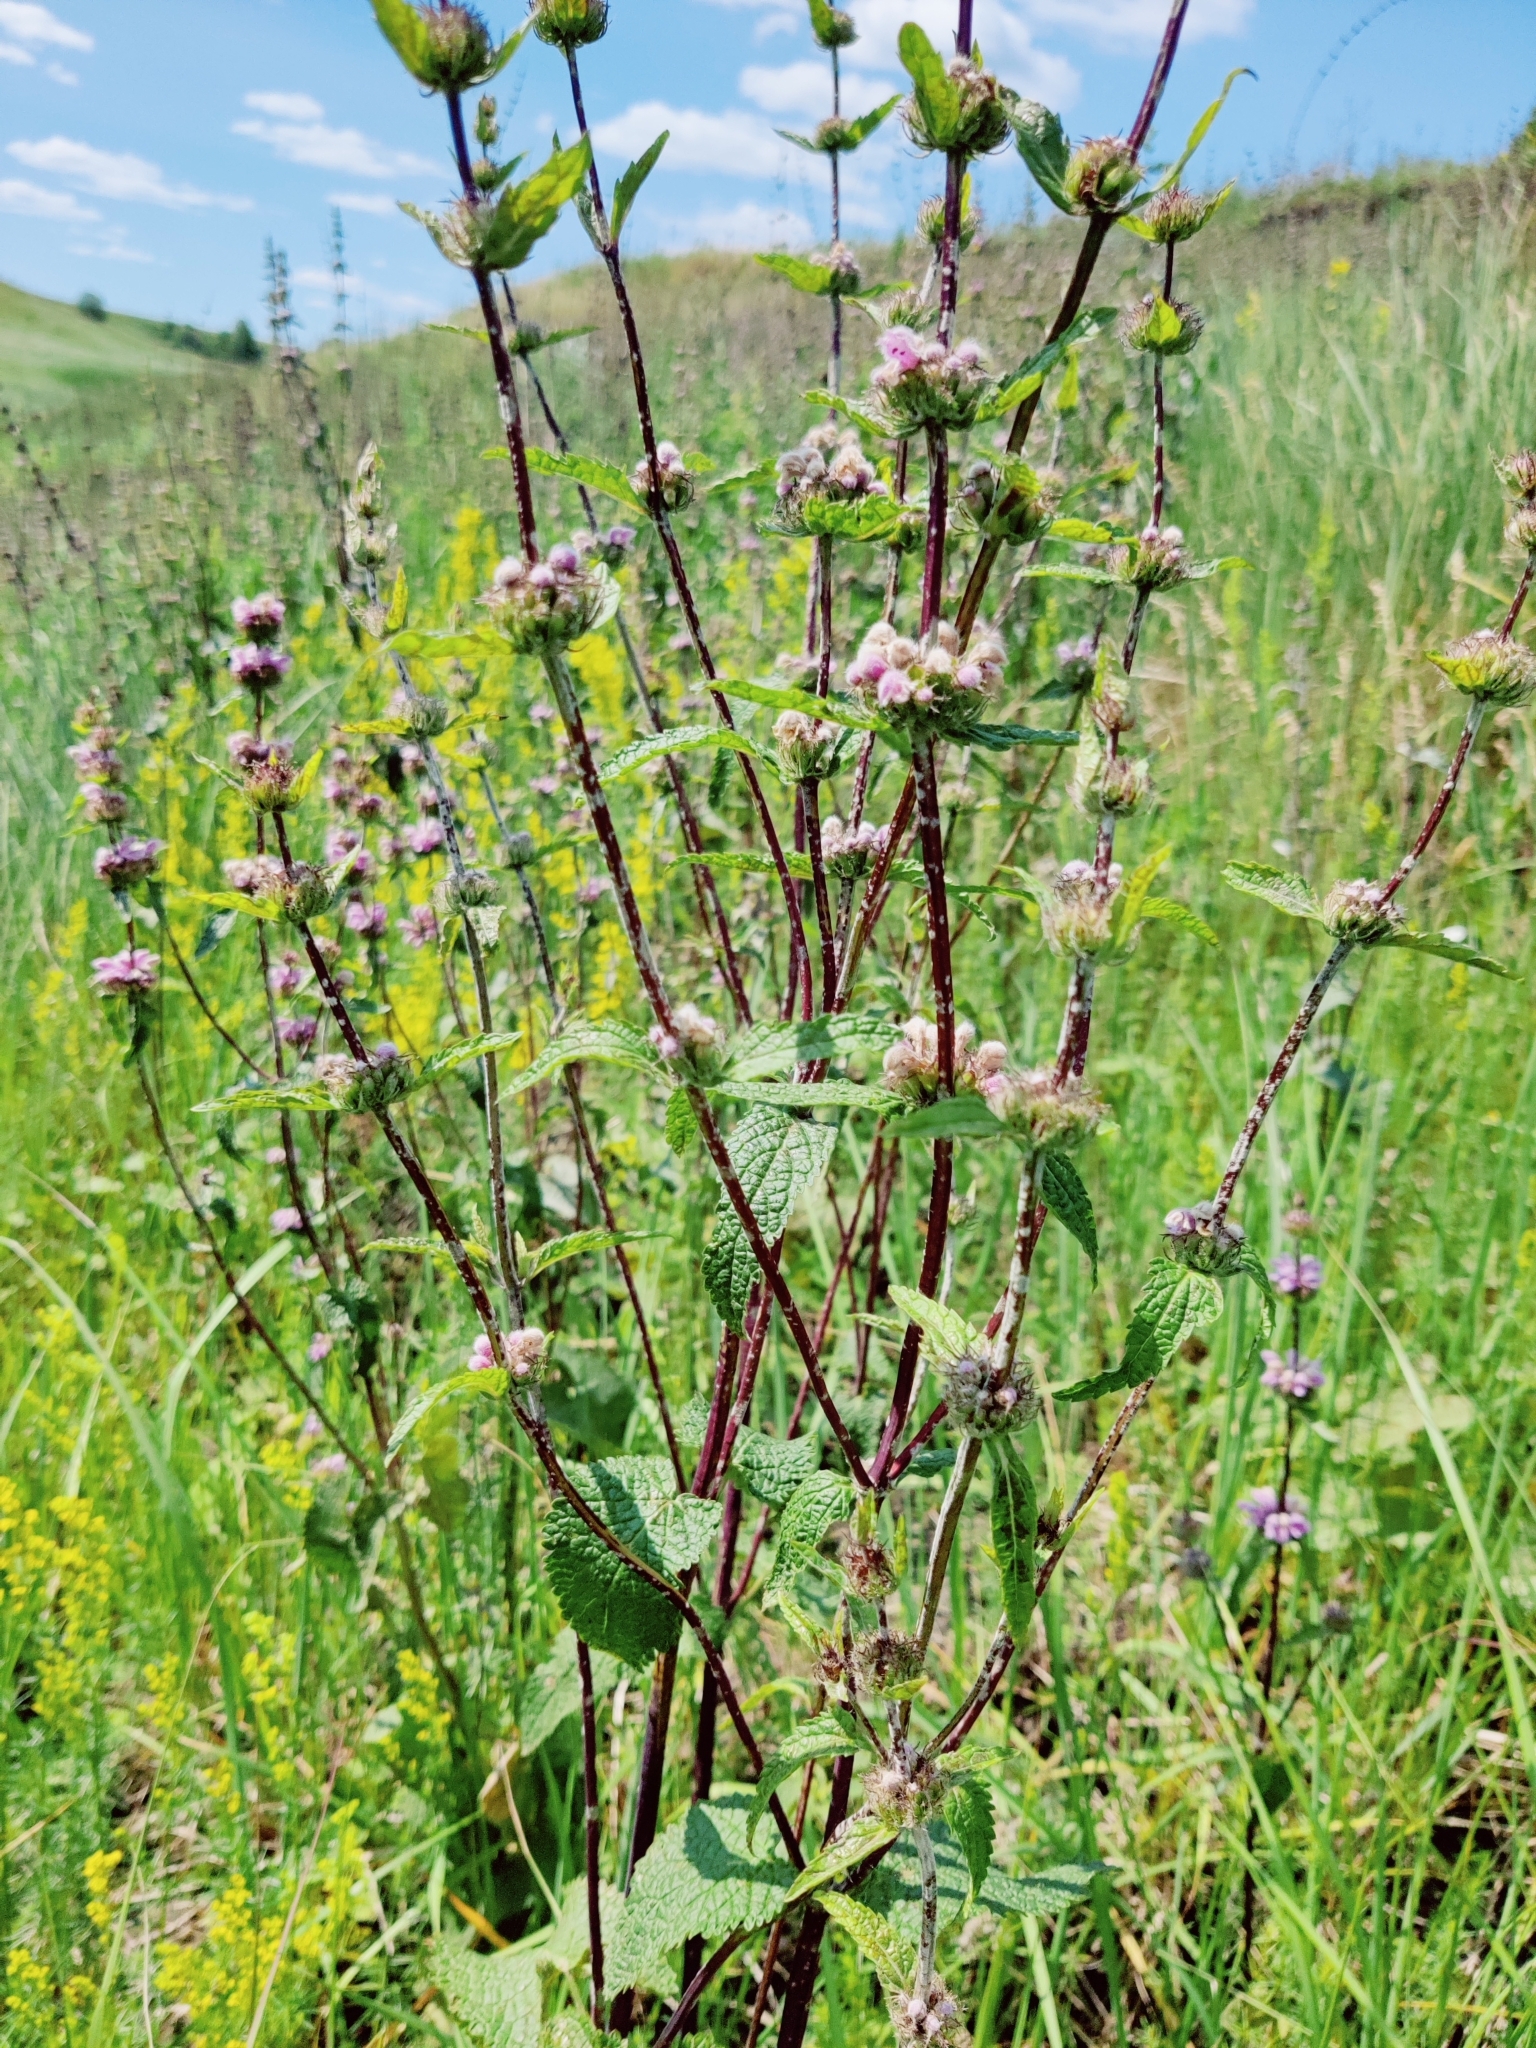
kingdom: Plantae
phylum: Tracheophyta
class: Magnoliopsida
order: Lamiales
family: Lamiaceae
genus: Phlomoides
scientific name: Phlomoides tuberosa
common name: Tuberous jerusalem sage
